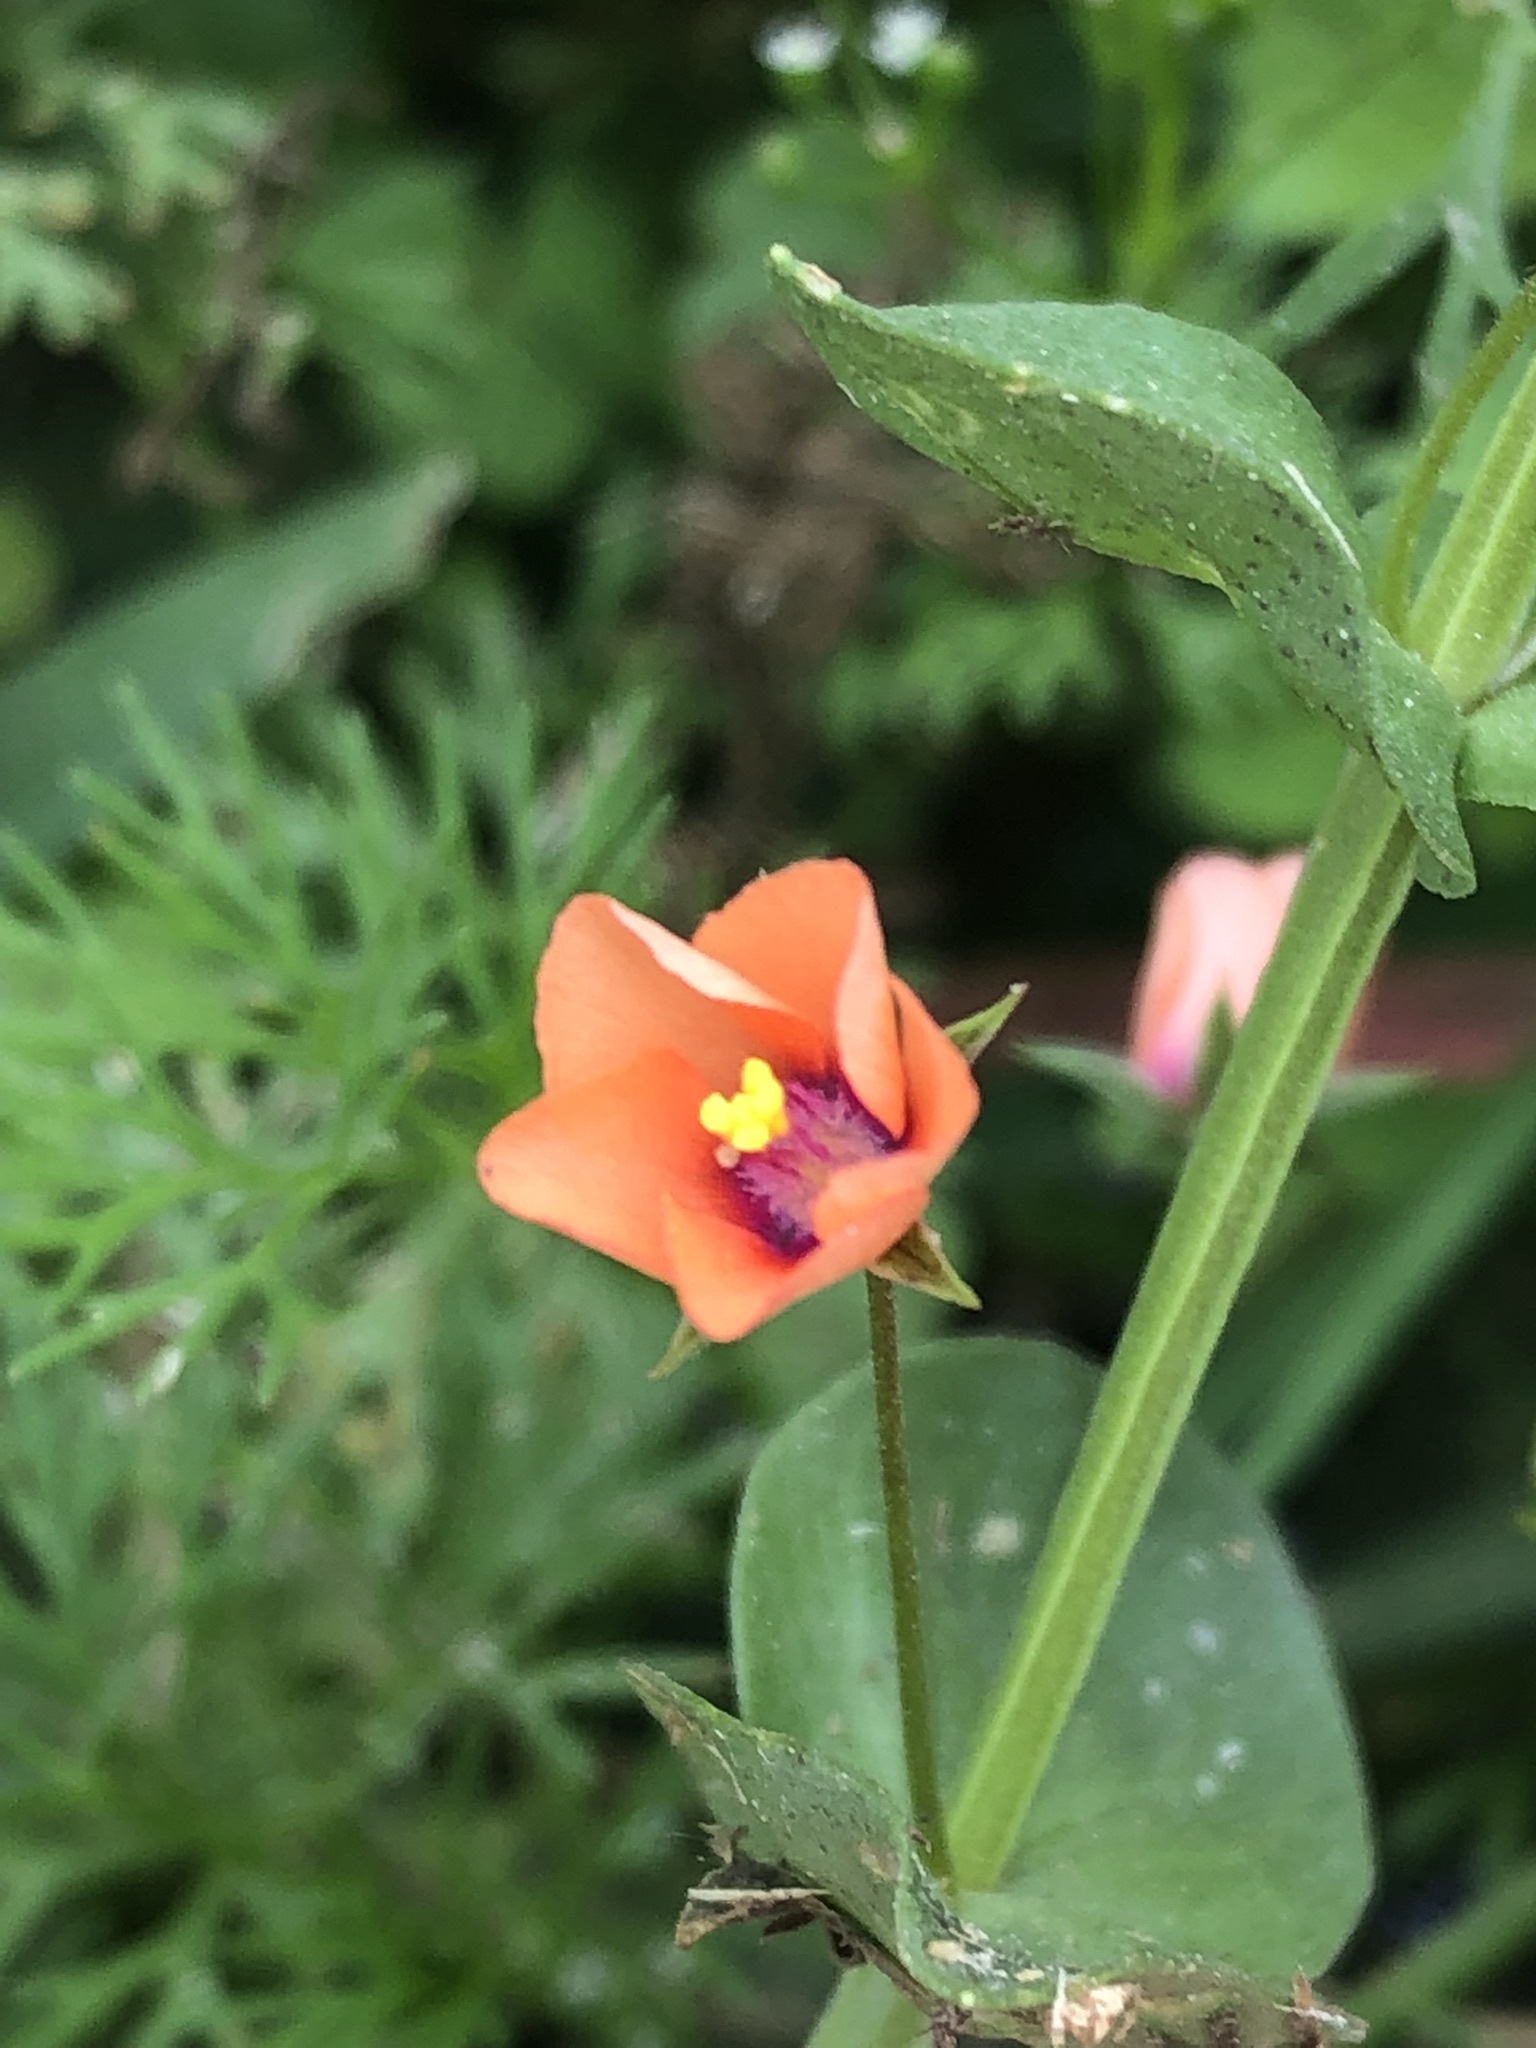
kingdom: Plantae
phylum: Tracheophyta
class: Magnoliopsida
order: Ericales
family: Primulaceae
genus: Lysimachia
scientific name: Lysimachia arvensis
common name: Scarlet pimpernel
